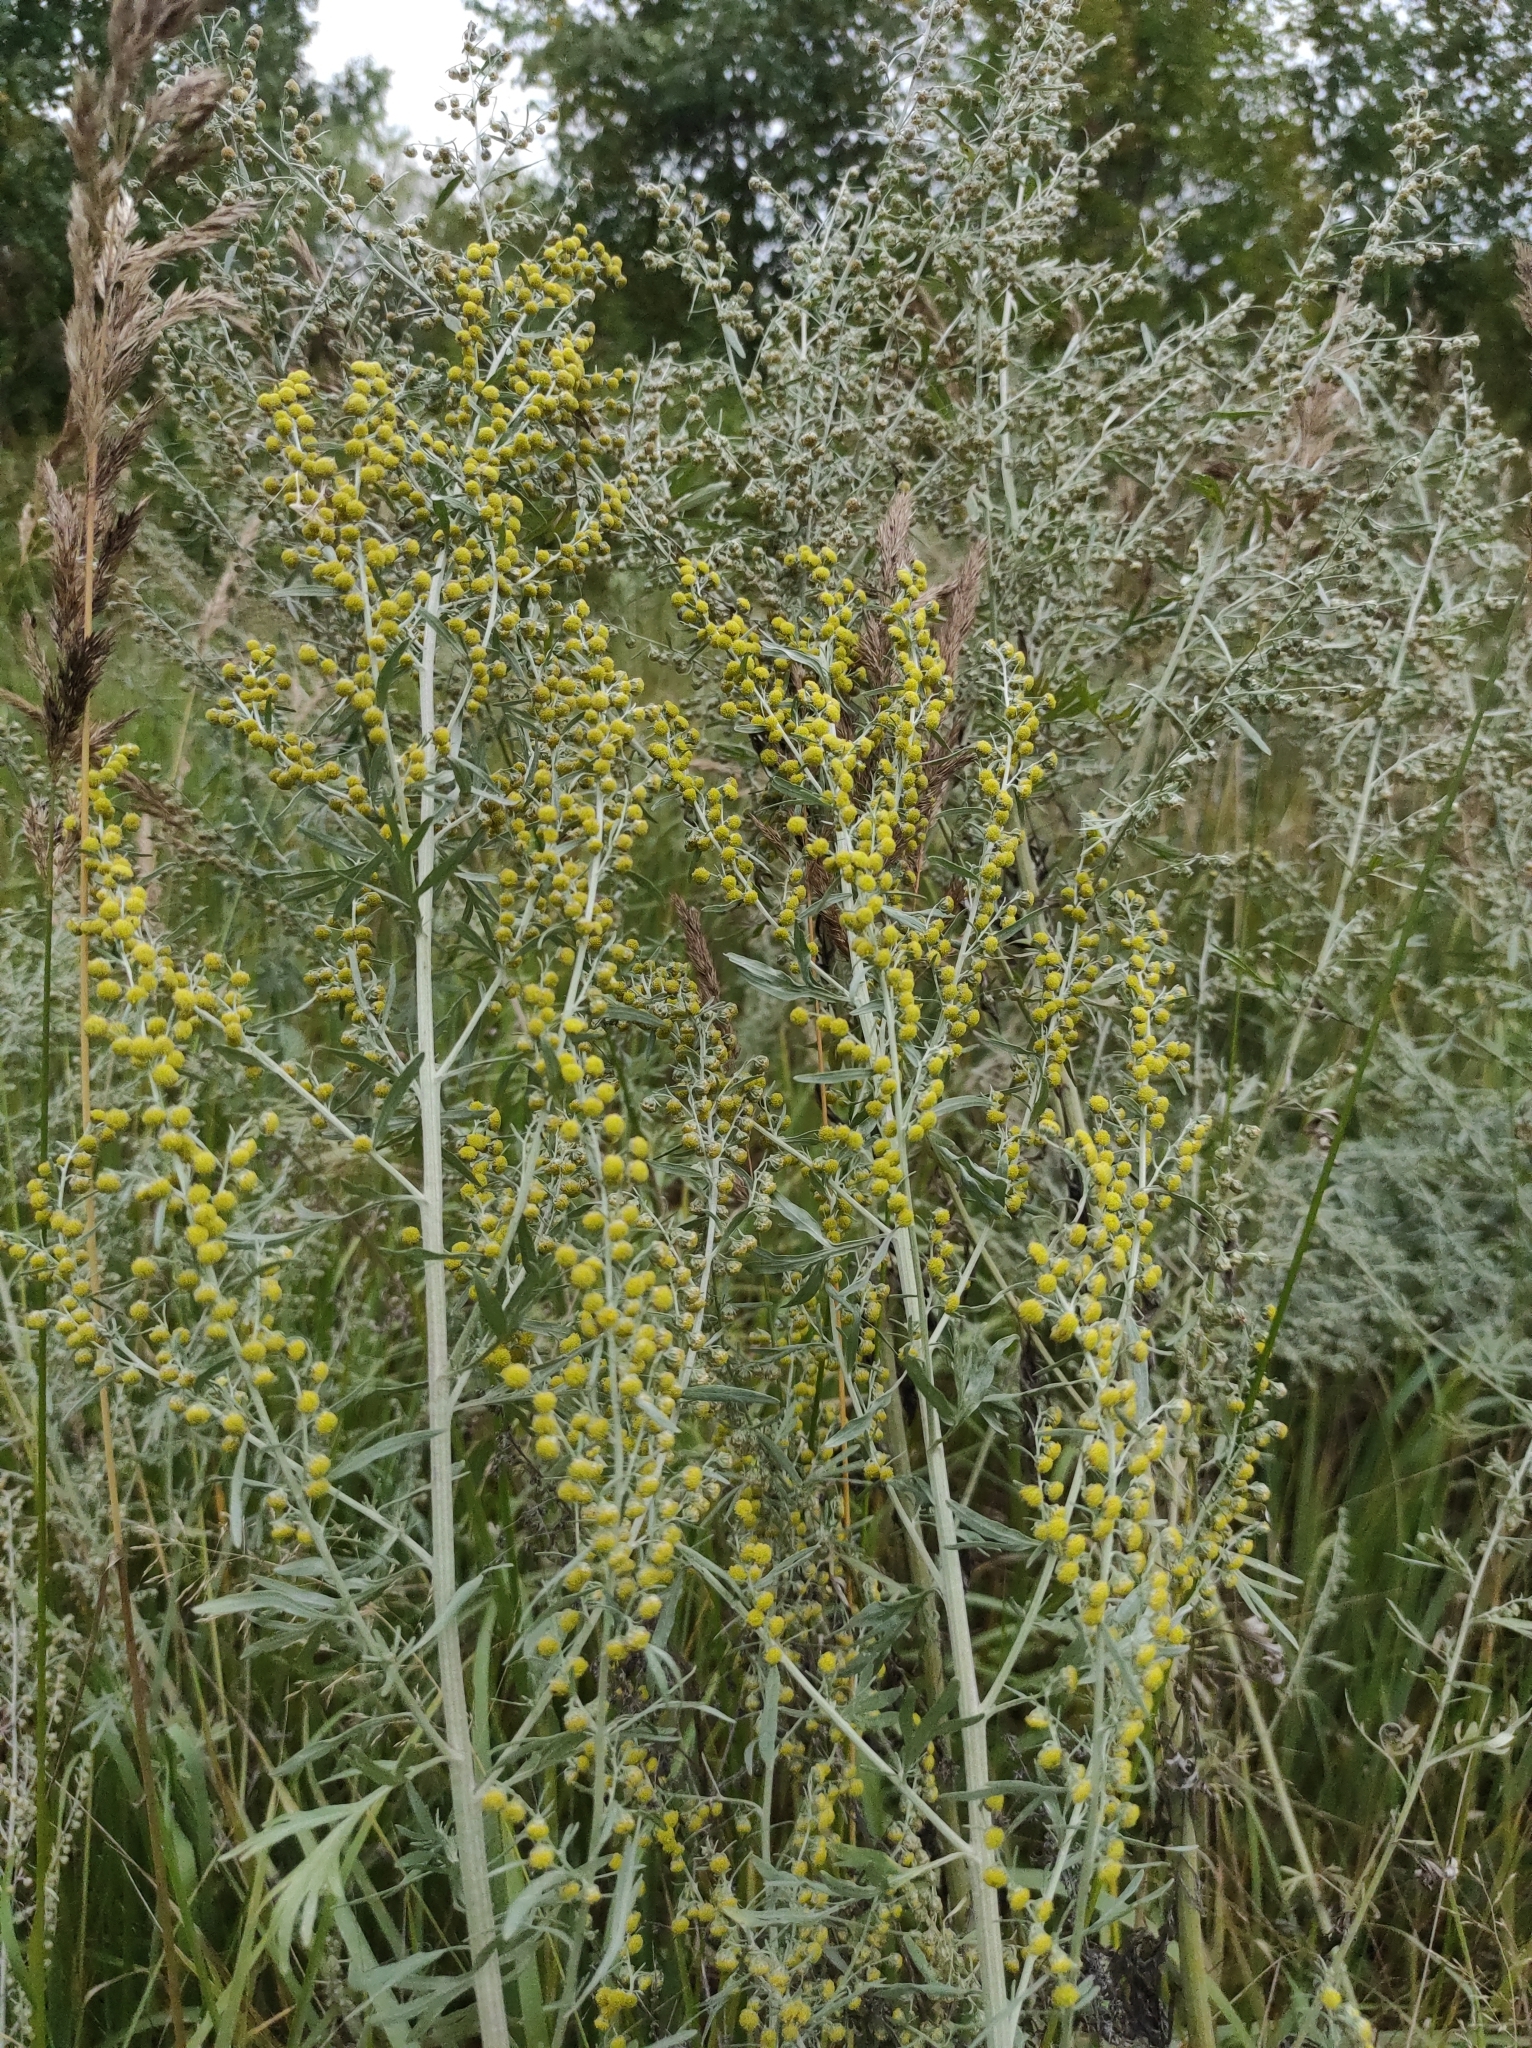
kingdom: Plantae
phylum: Tracheophyta
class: Magnoliopsida
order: Asterales
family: Asteraceae
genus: Artemisia
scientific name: Artemisia absinthium
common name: Wormwood
